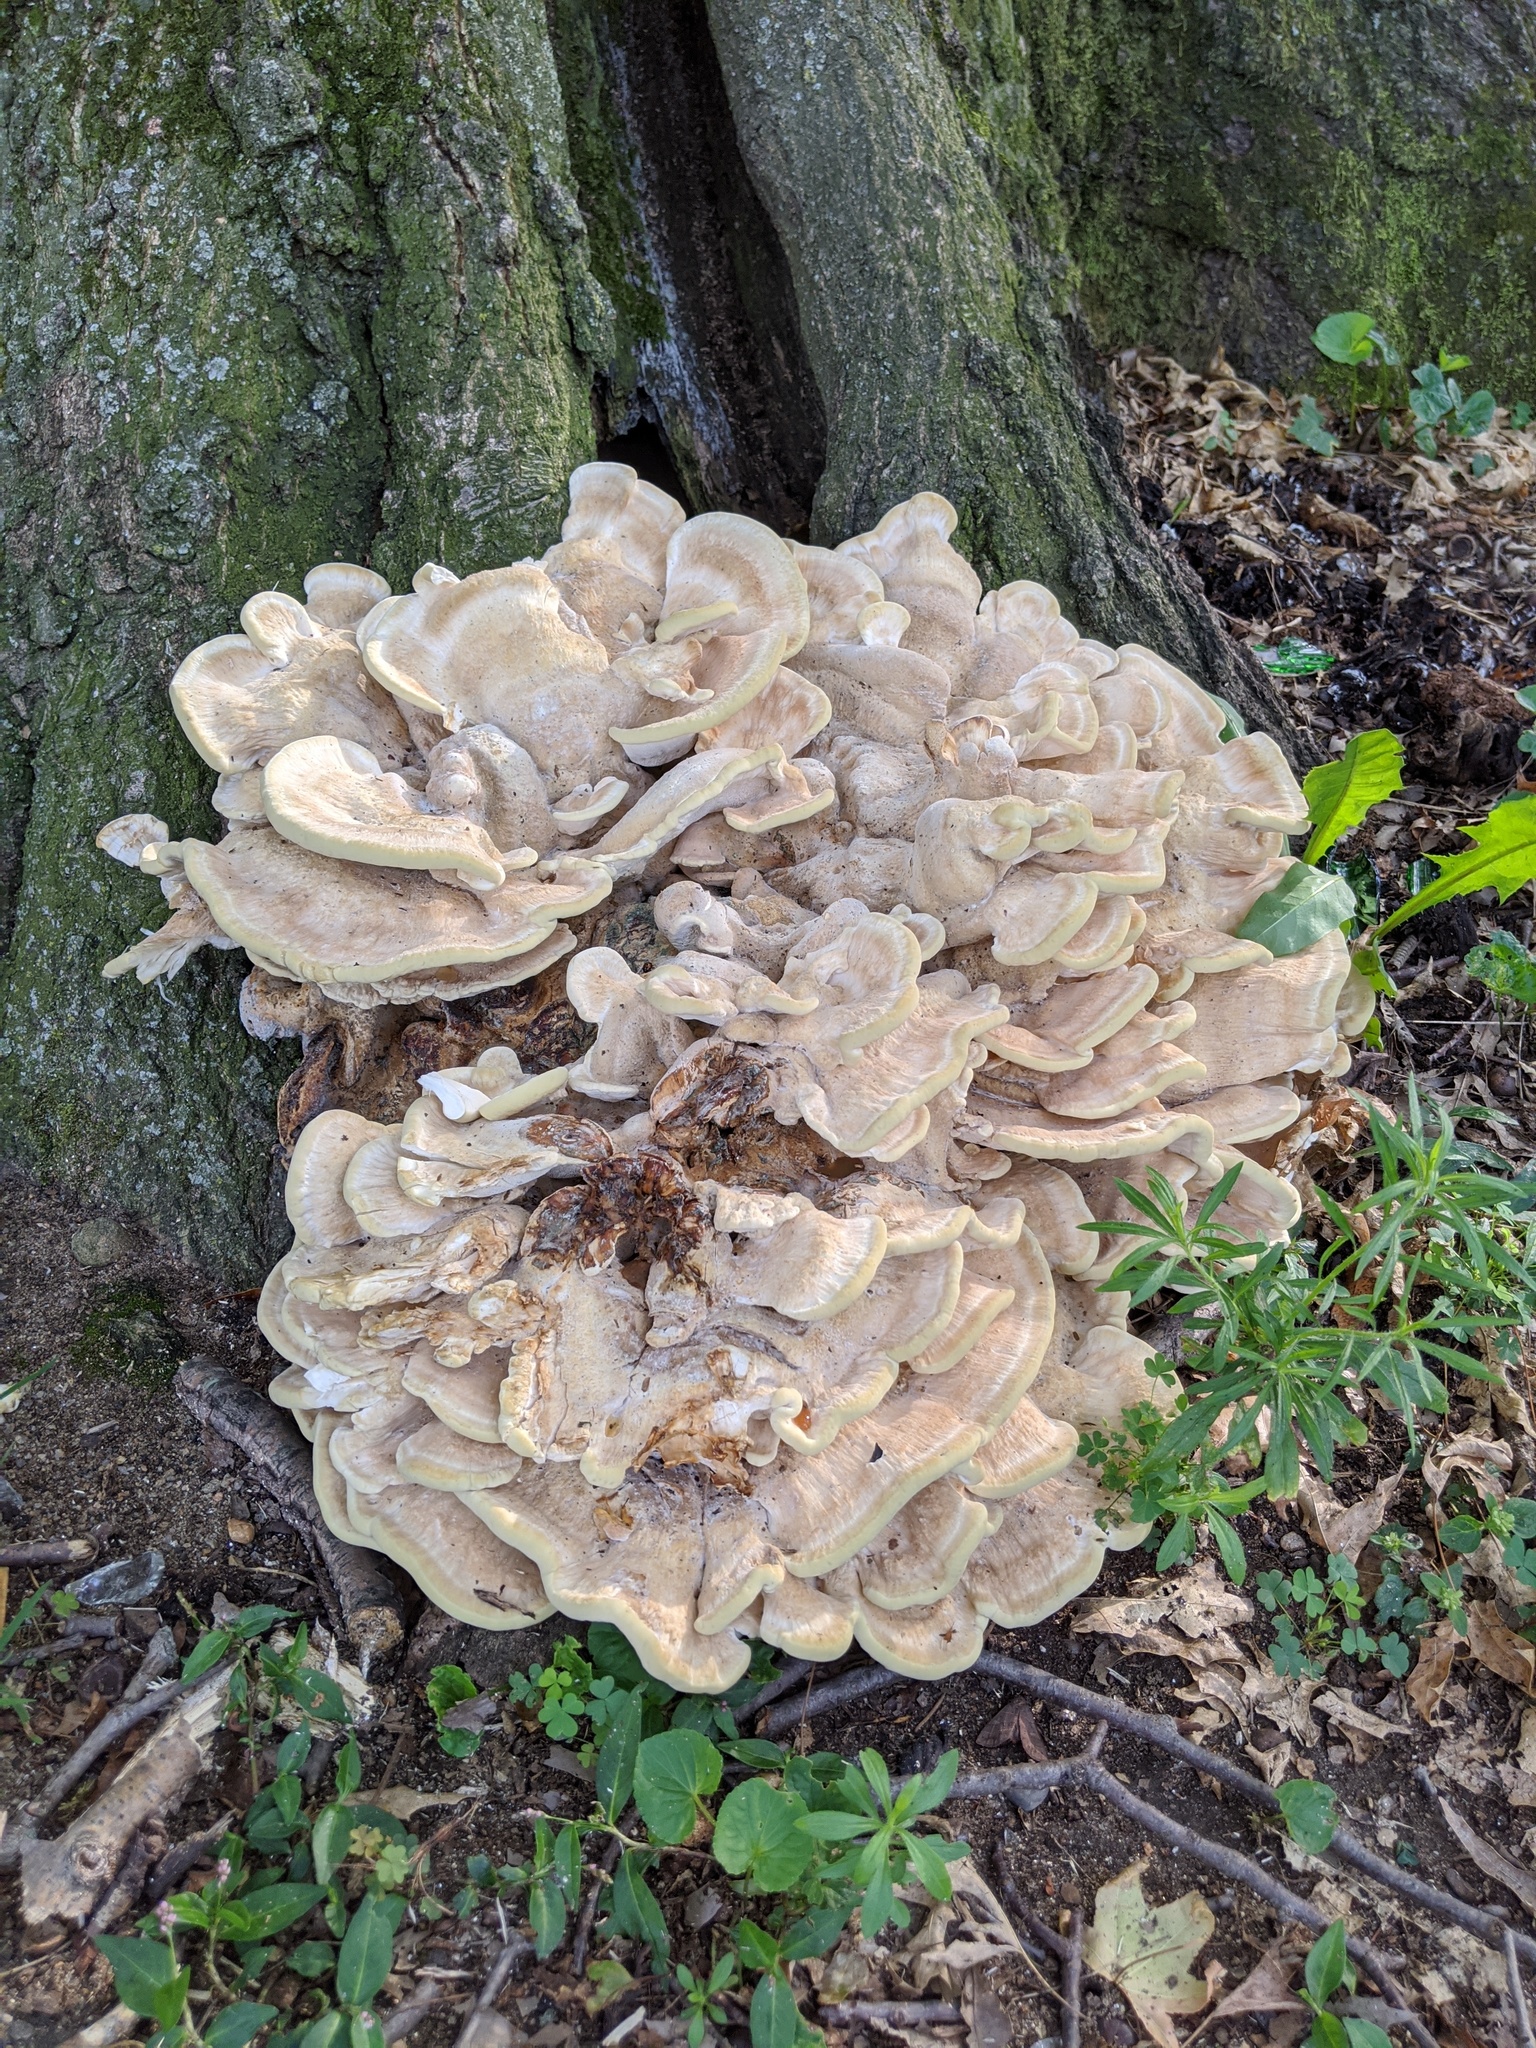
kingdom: Fungi
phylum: Basidiomycota
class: Agaricomycetes
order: Russulales
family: Bondarzewiaceae
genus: Bondarzewia
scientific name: Bondarzewia berkeleyi
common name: Berkeley's polypore
